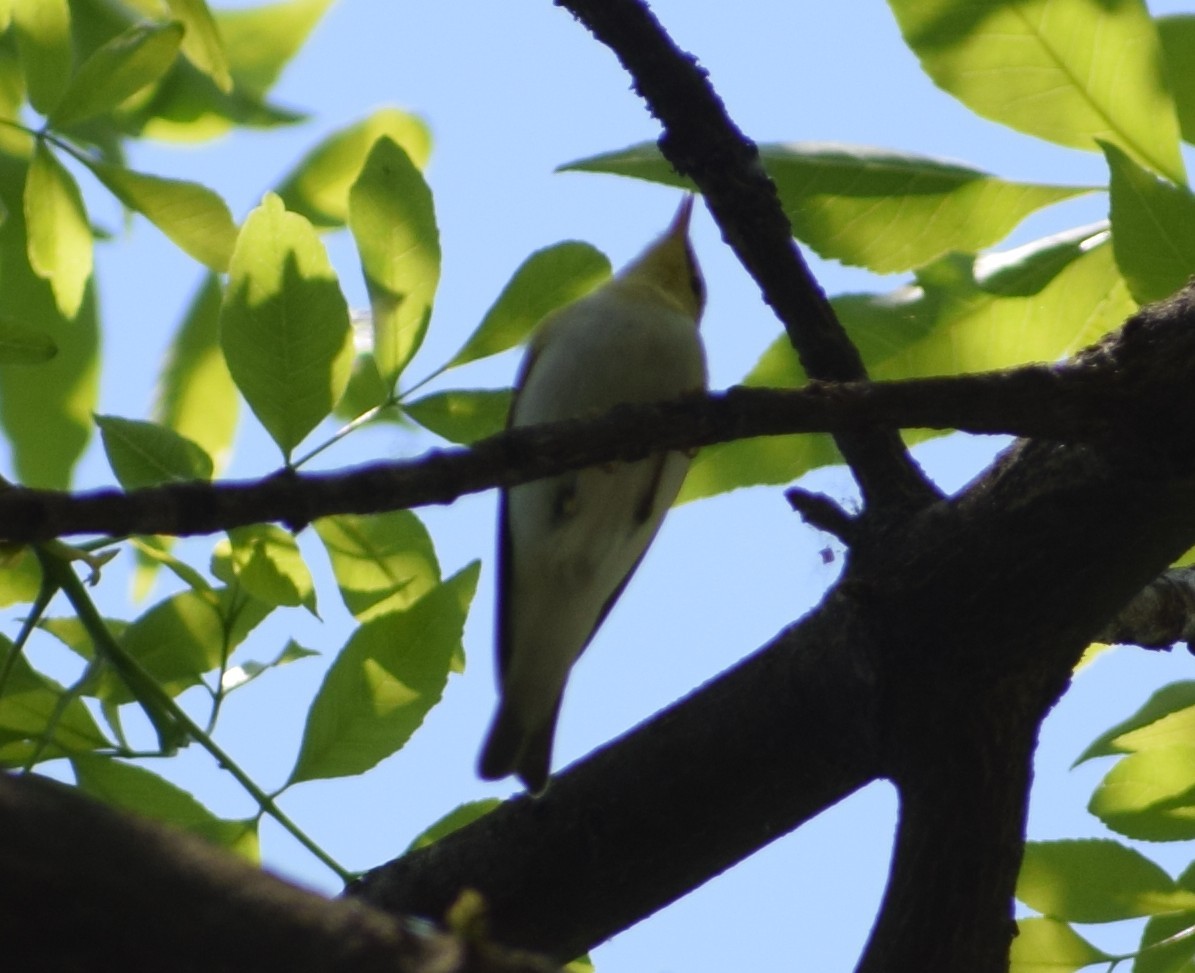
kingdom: Animalia
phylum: Chordata
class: Aves
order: Passeriformes
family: Phylloscopidae
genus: Phylloscopus
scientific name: Phylloscopus sibillatrix
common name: Wood warbler
